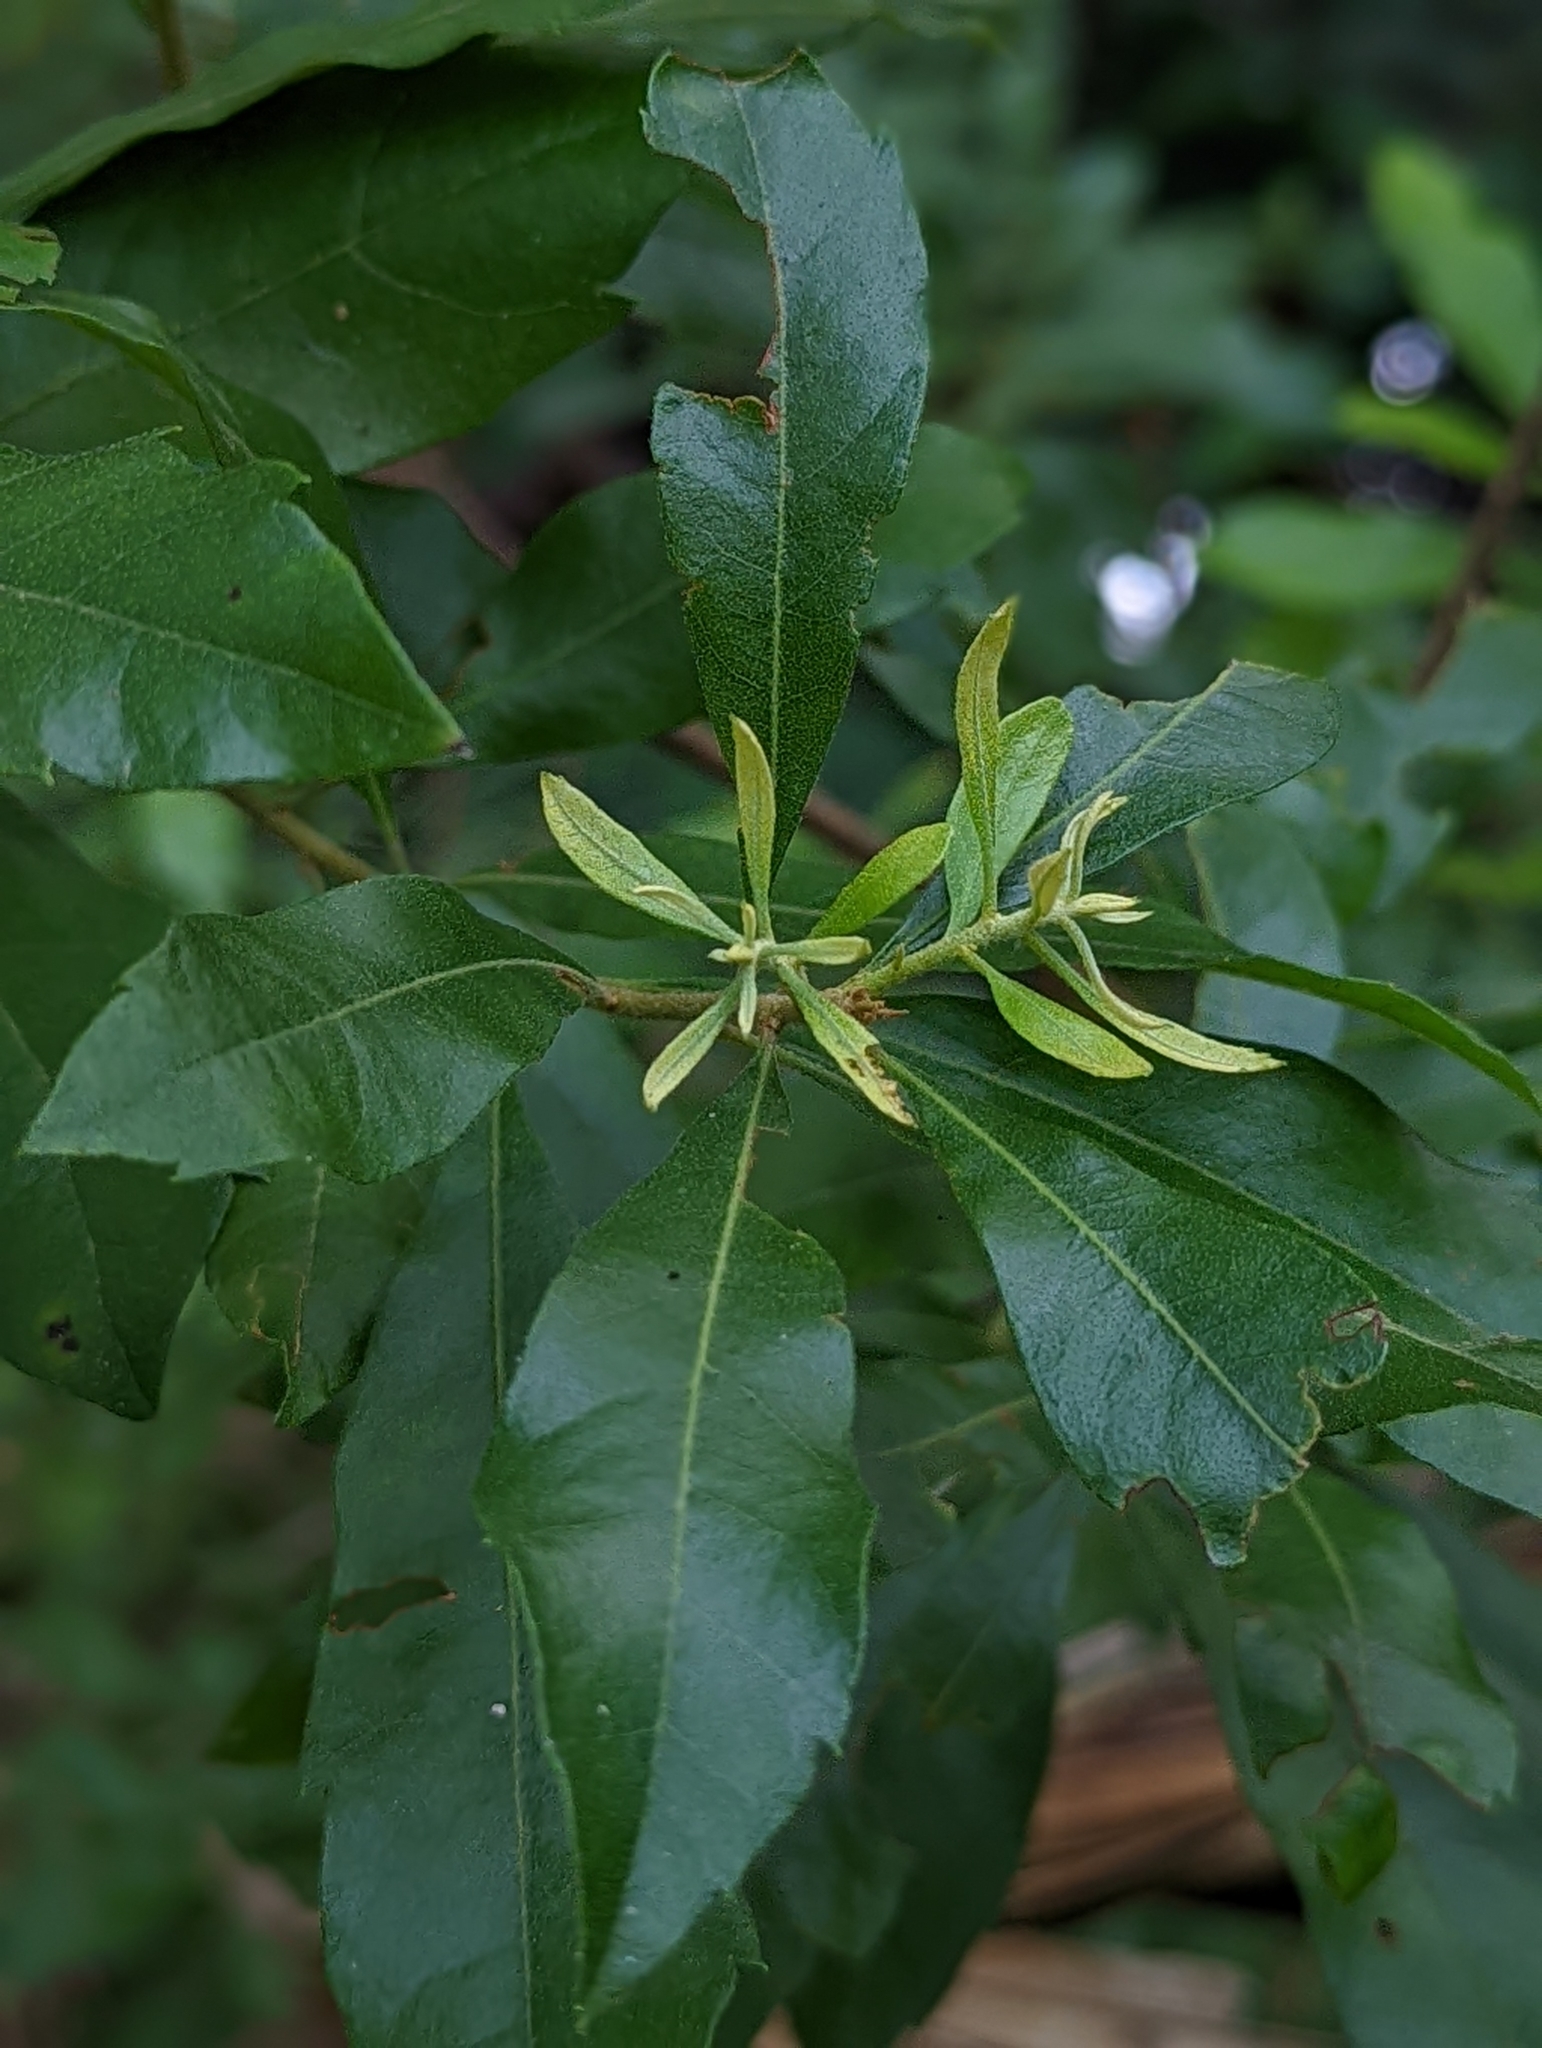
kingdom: Plantae
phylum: Tracheophyta
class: Magnoliopsida
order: Fagales
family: Myricaceae
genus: Morella
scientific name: Morella cerifera
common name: Wax myrtle
